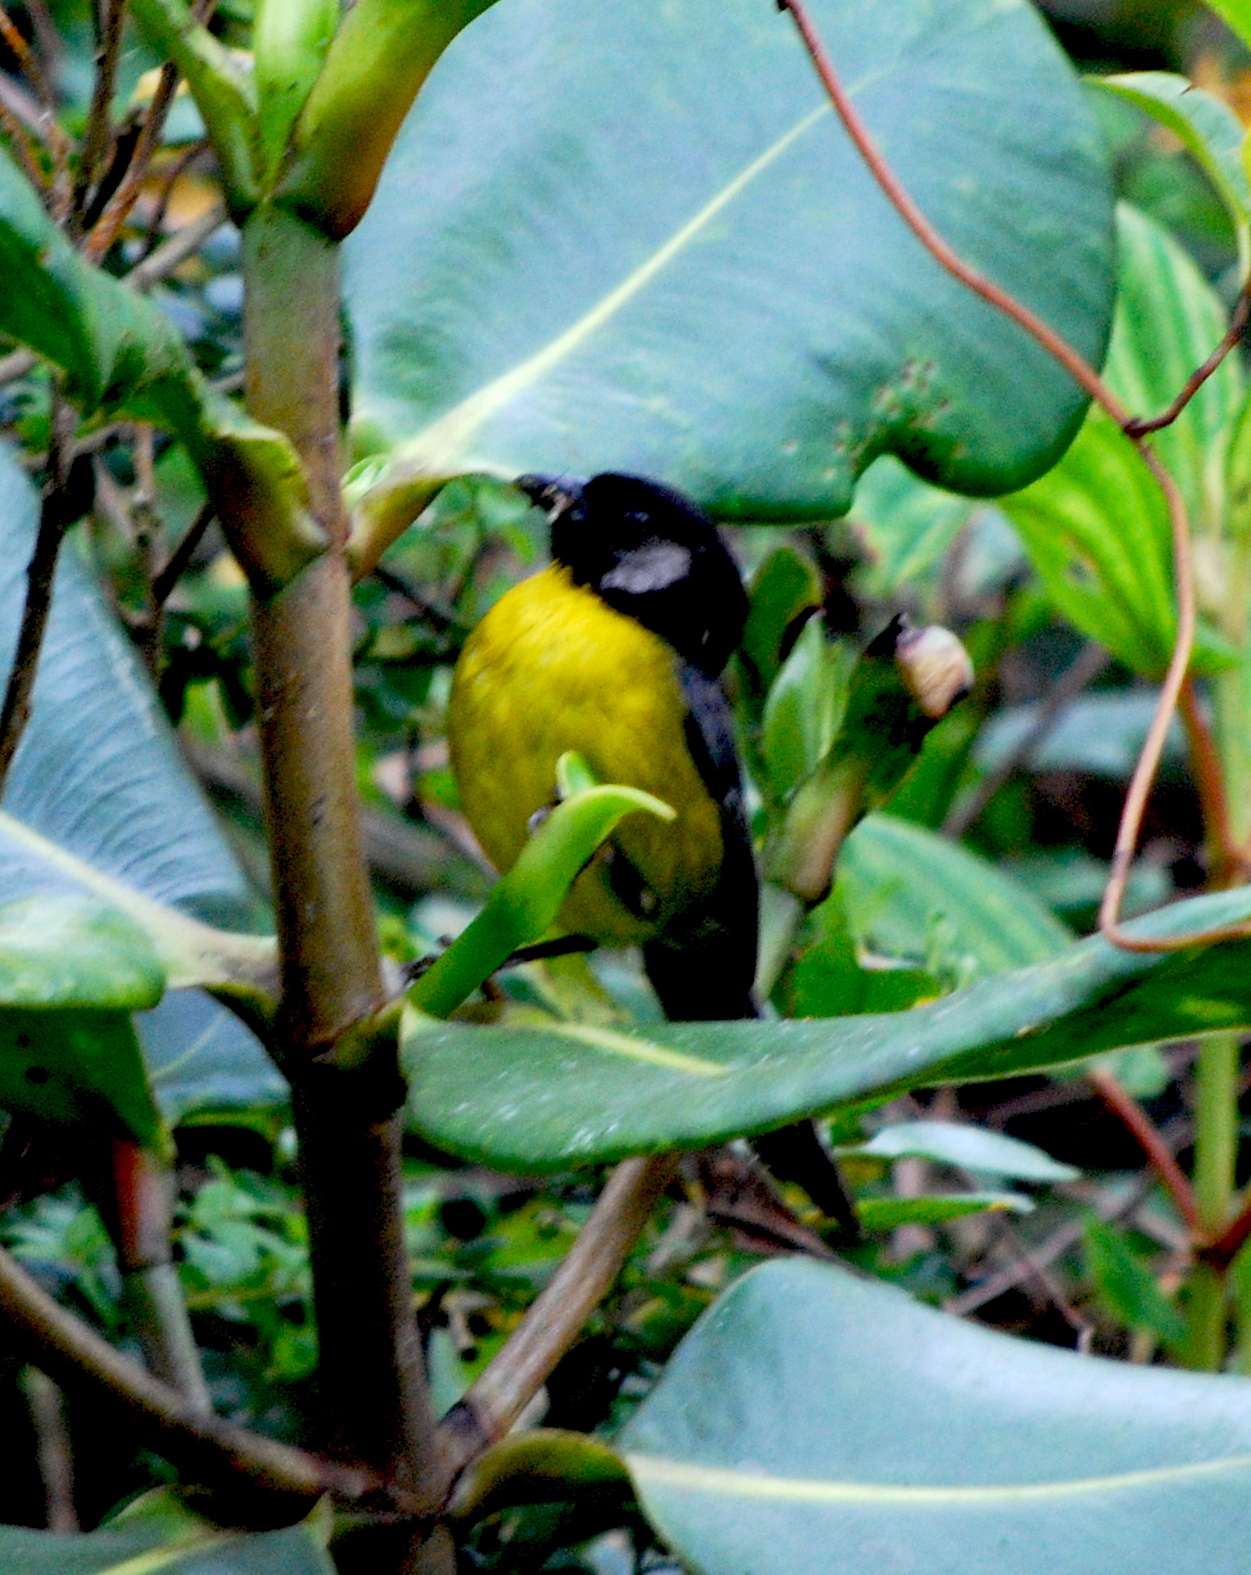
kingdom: Animalia
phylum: Chordata
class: Aves
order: Passeriformes
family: Passerellidae
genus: Atlapetes
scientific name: Atlapetes melanocephalus
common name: Santa marta brush-finch
